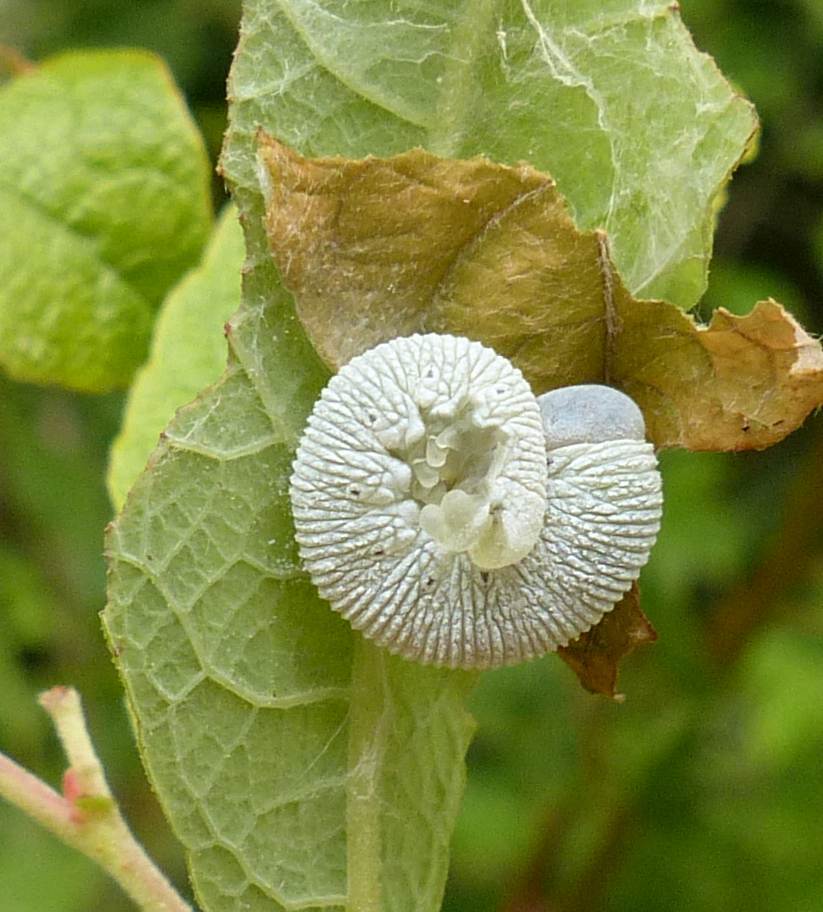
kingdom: Animalia
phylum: Arthropoda
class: Insecta
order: Hymenoptera
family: Cimbicidae
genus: Trichiosoma
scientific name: Trichiosoma triangulum
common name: Giant birch sawfly
